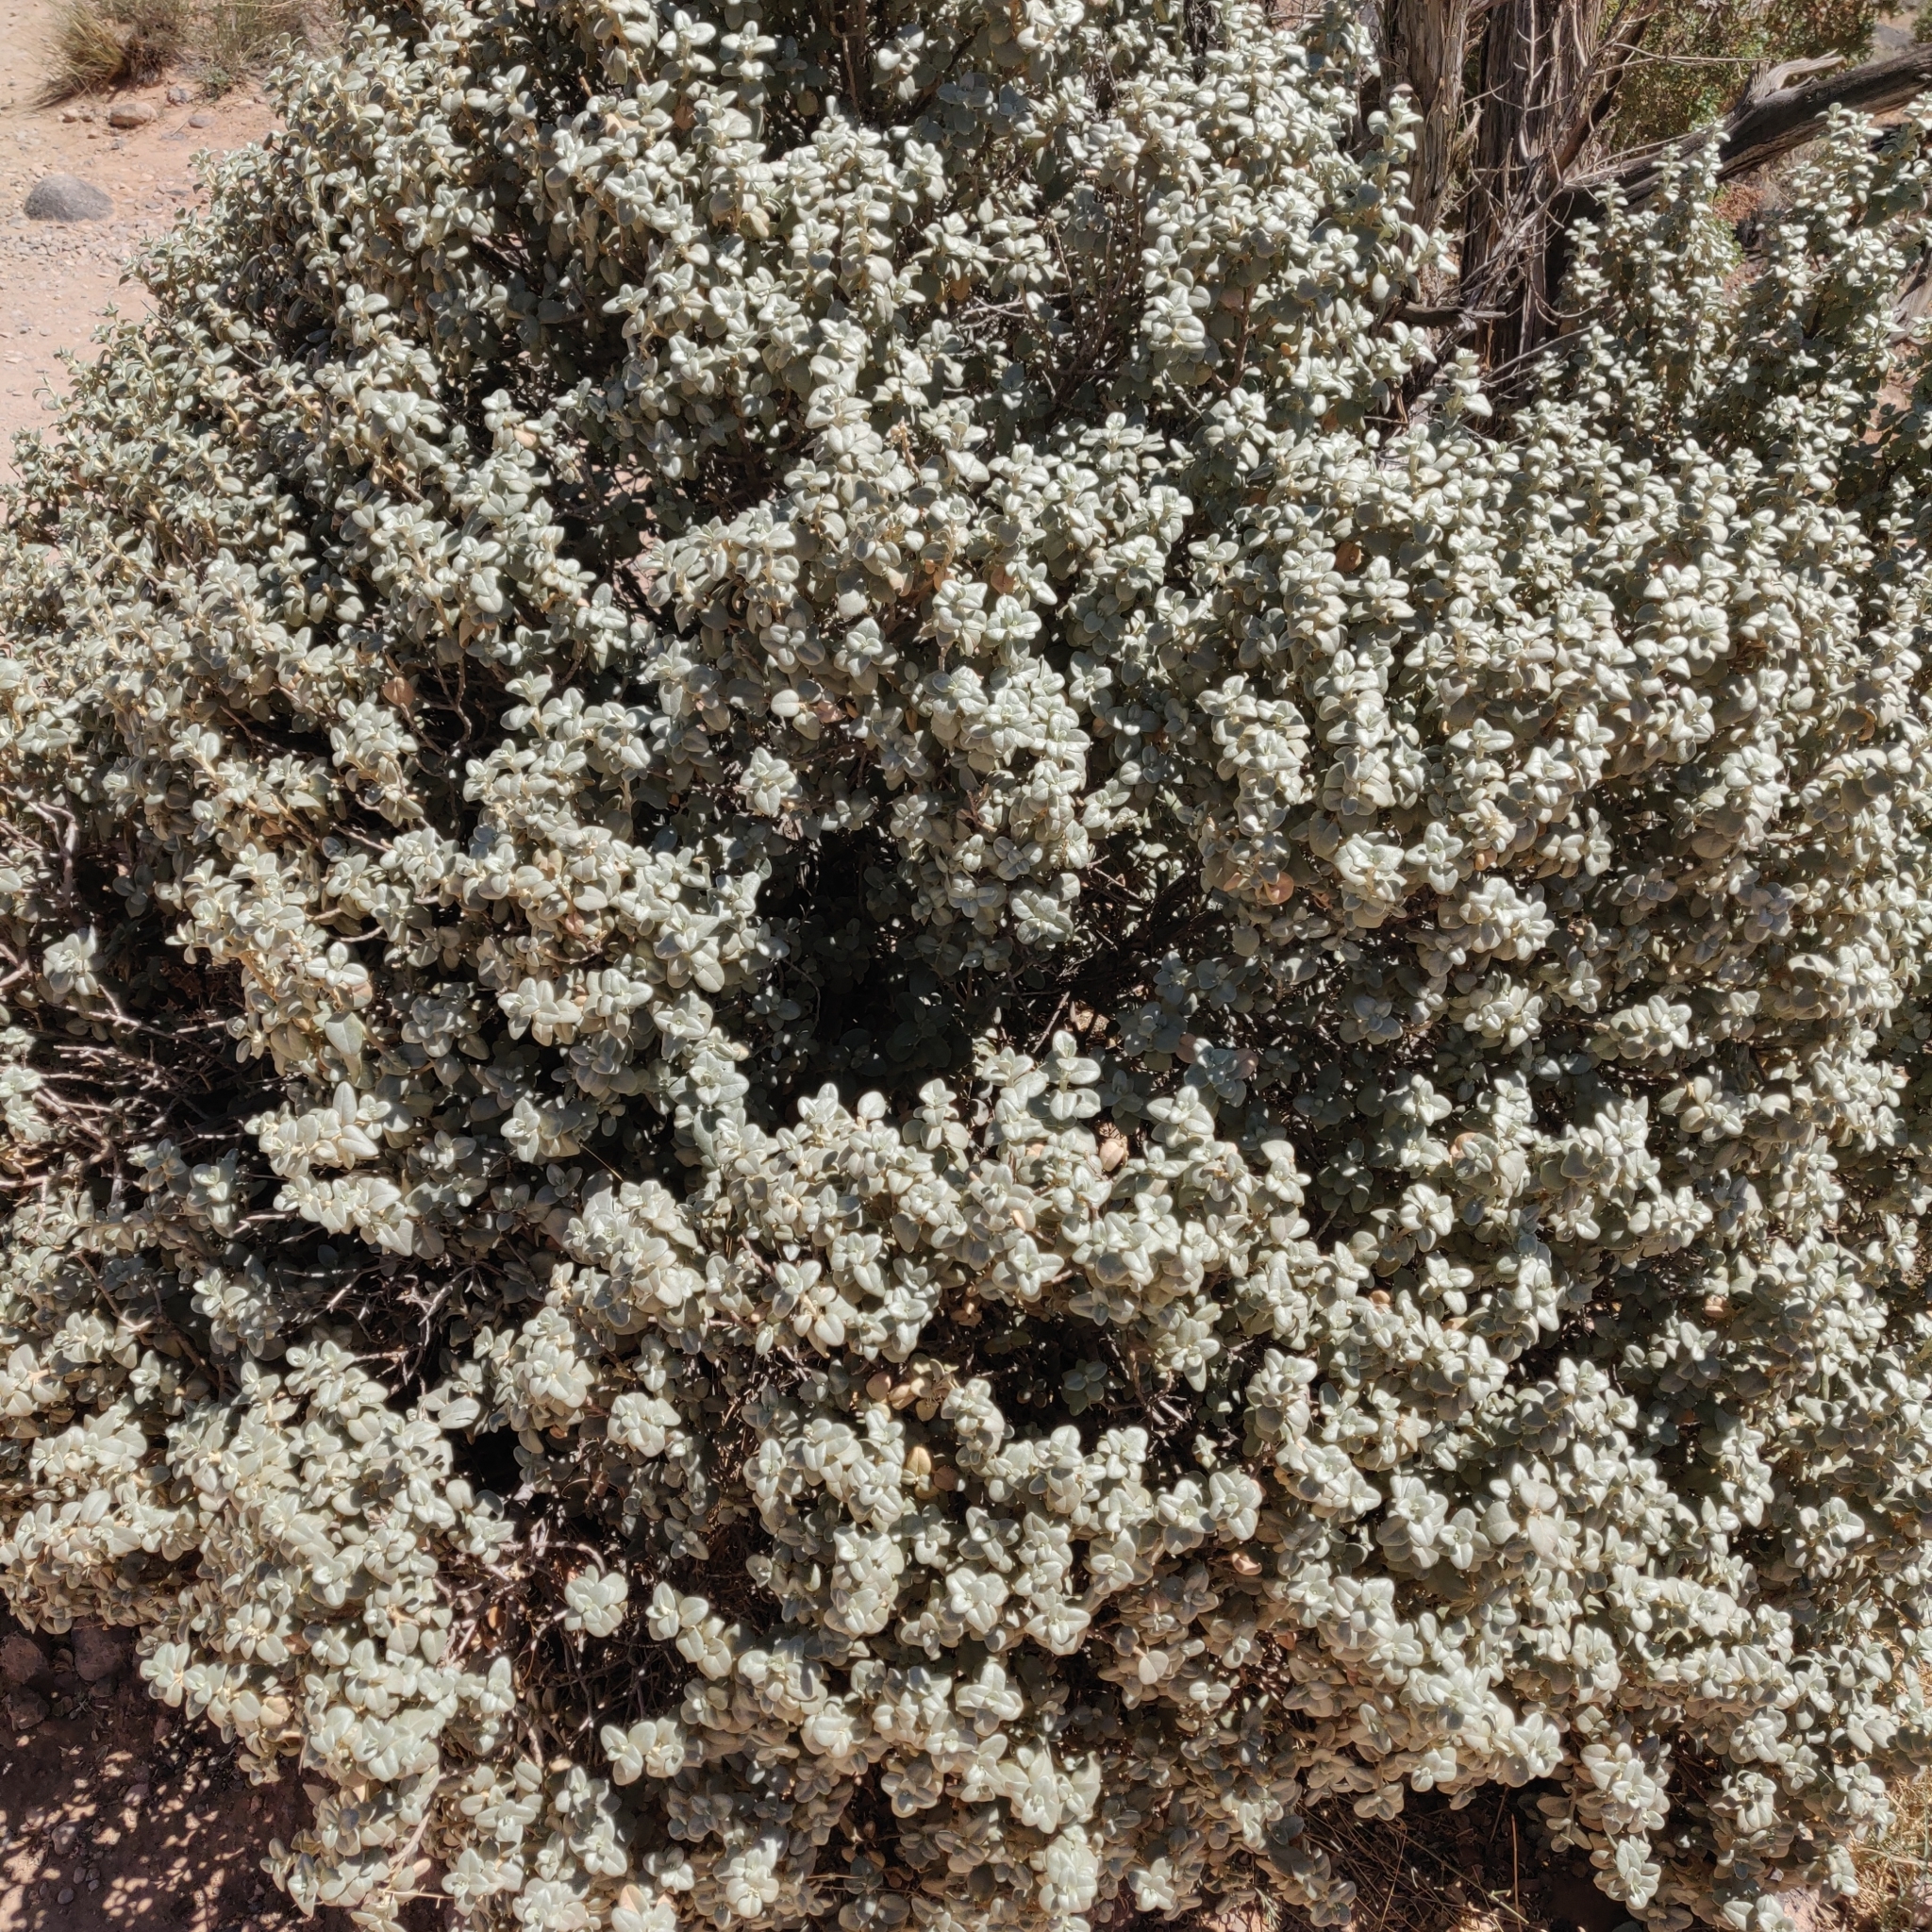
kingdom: Plantae
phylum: Tracheophyta
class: Magnoliopsida
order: Rosales
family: Elaeagnaceae
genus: Shepherdia
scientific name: Shepherdia rotundifolia
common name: Silverscale
